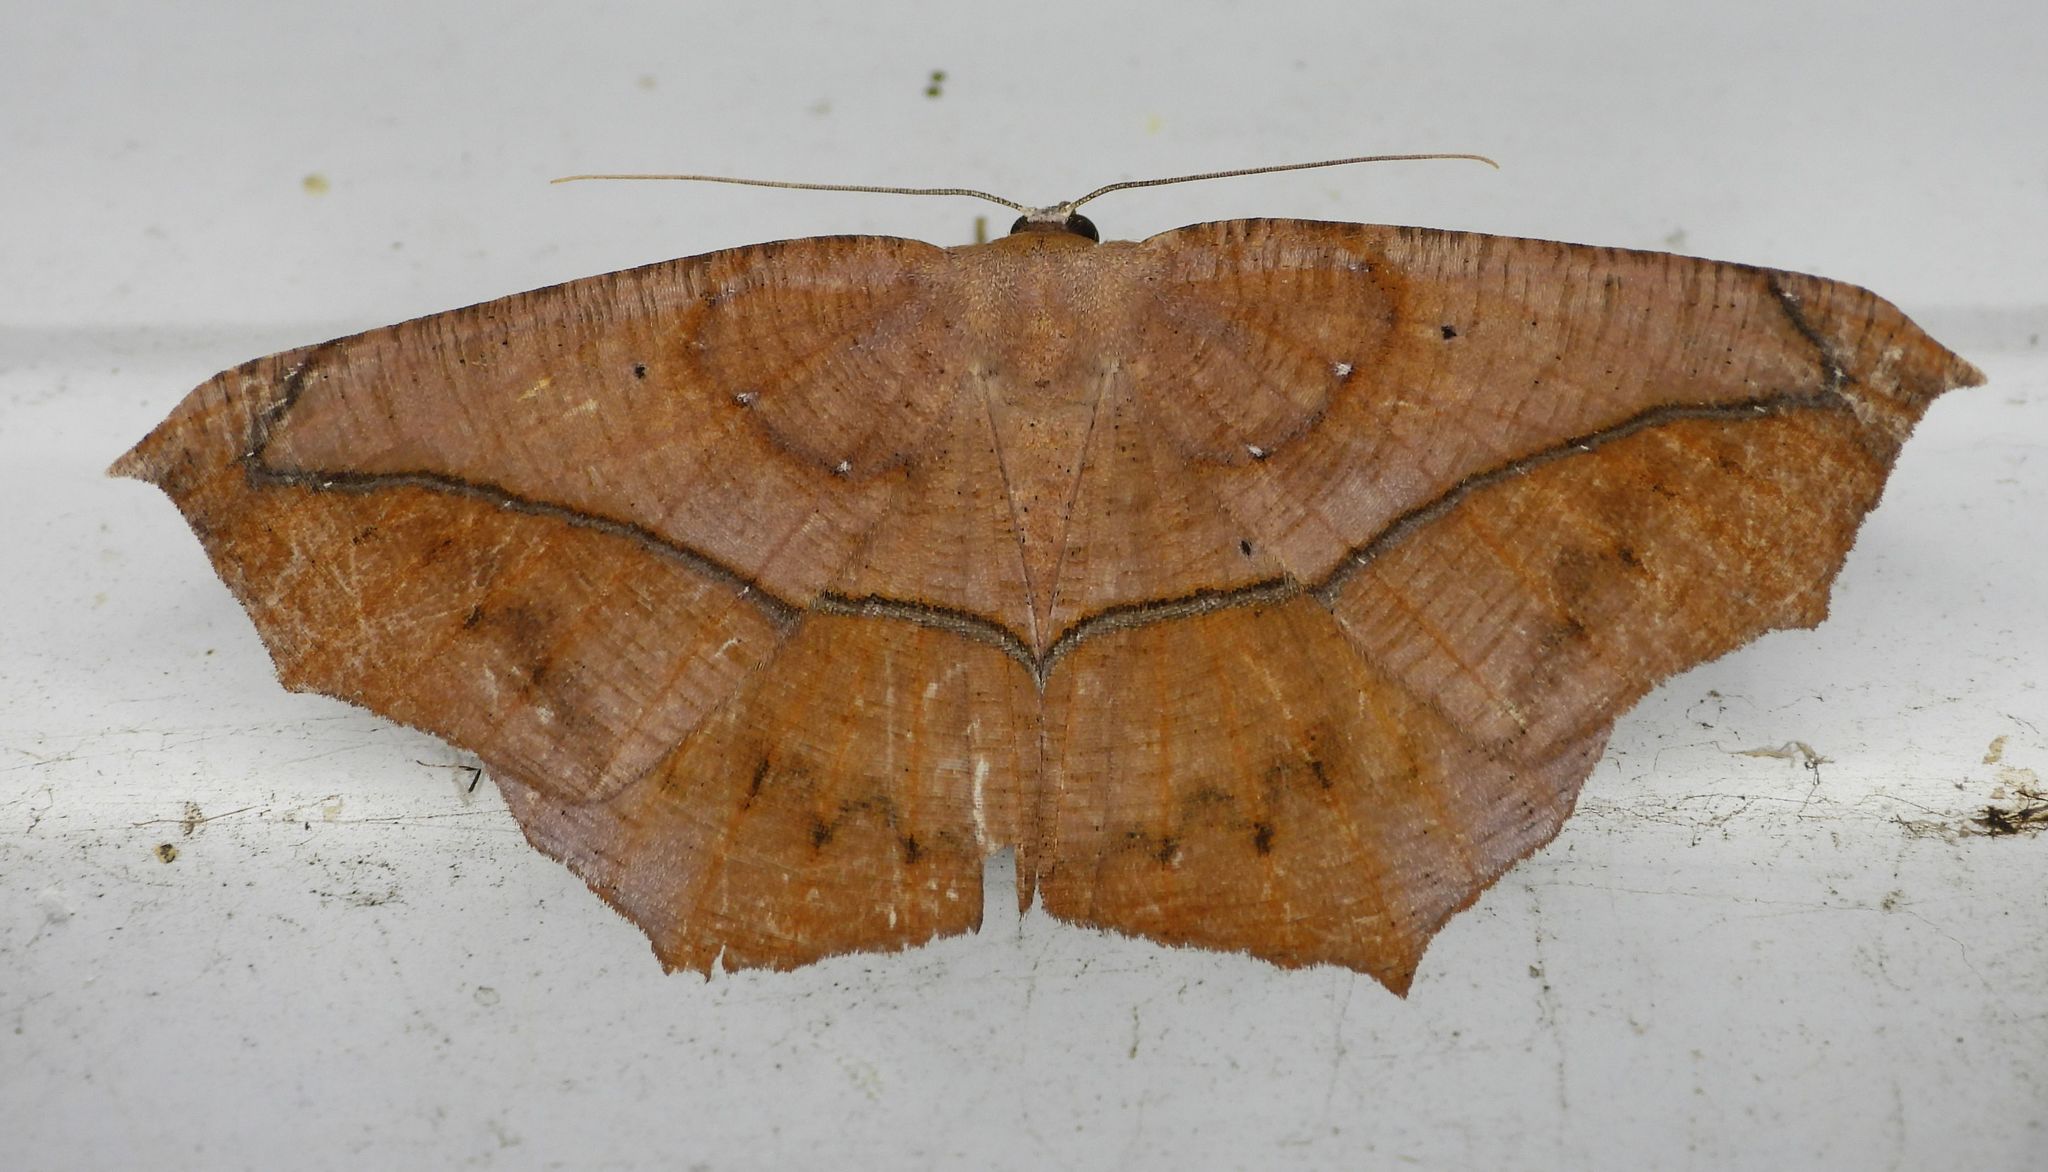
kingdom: Animalia
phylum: Arthropoda
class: Insecta
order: Lepidoptera
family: Geometridae
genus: Prochoerodes
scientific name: Prochoerodes lineola
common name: Large maple spanworm
